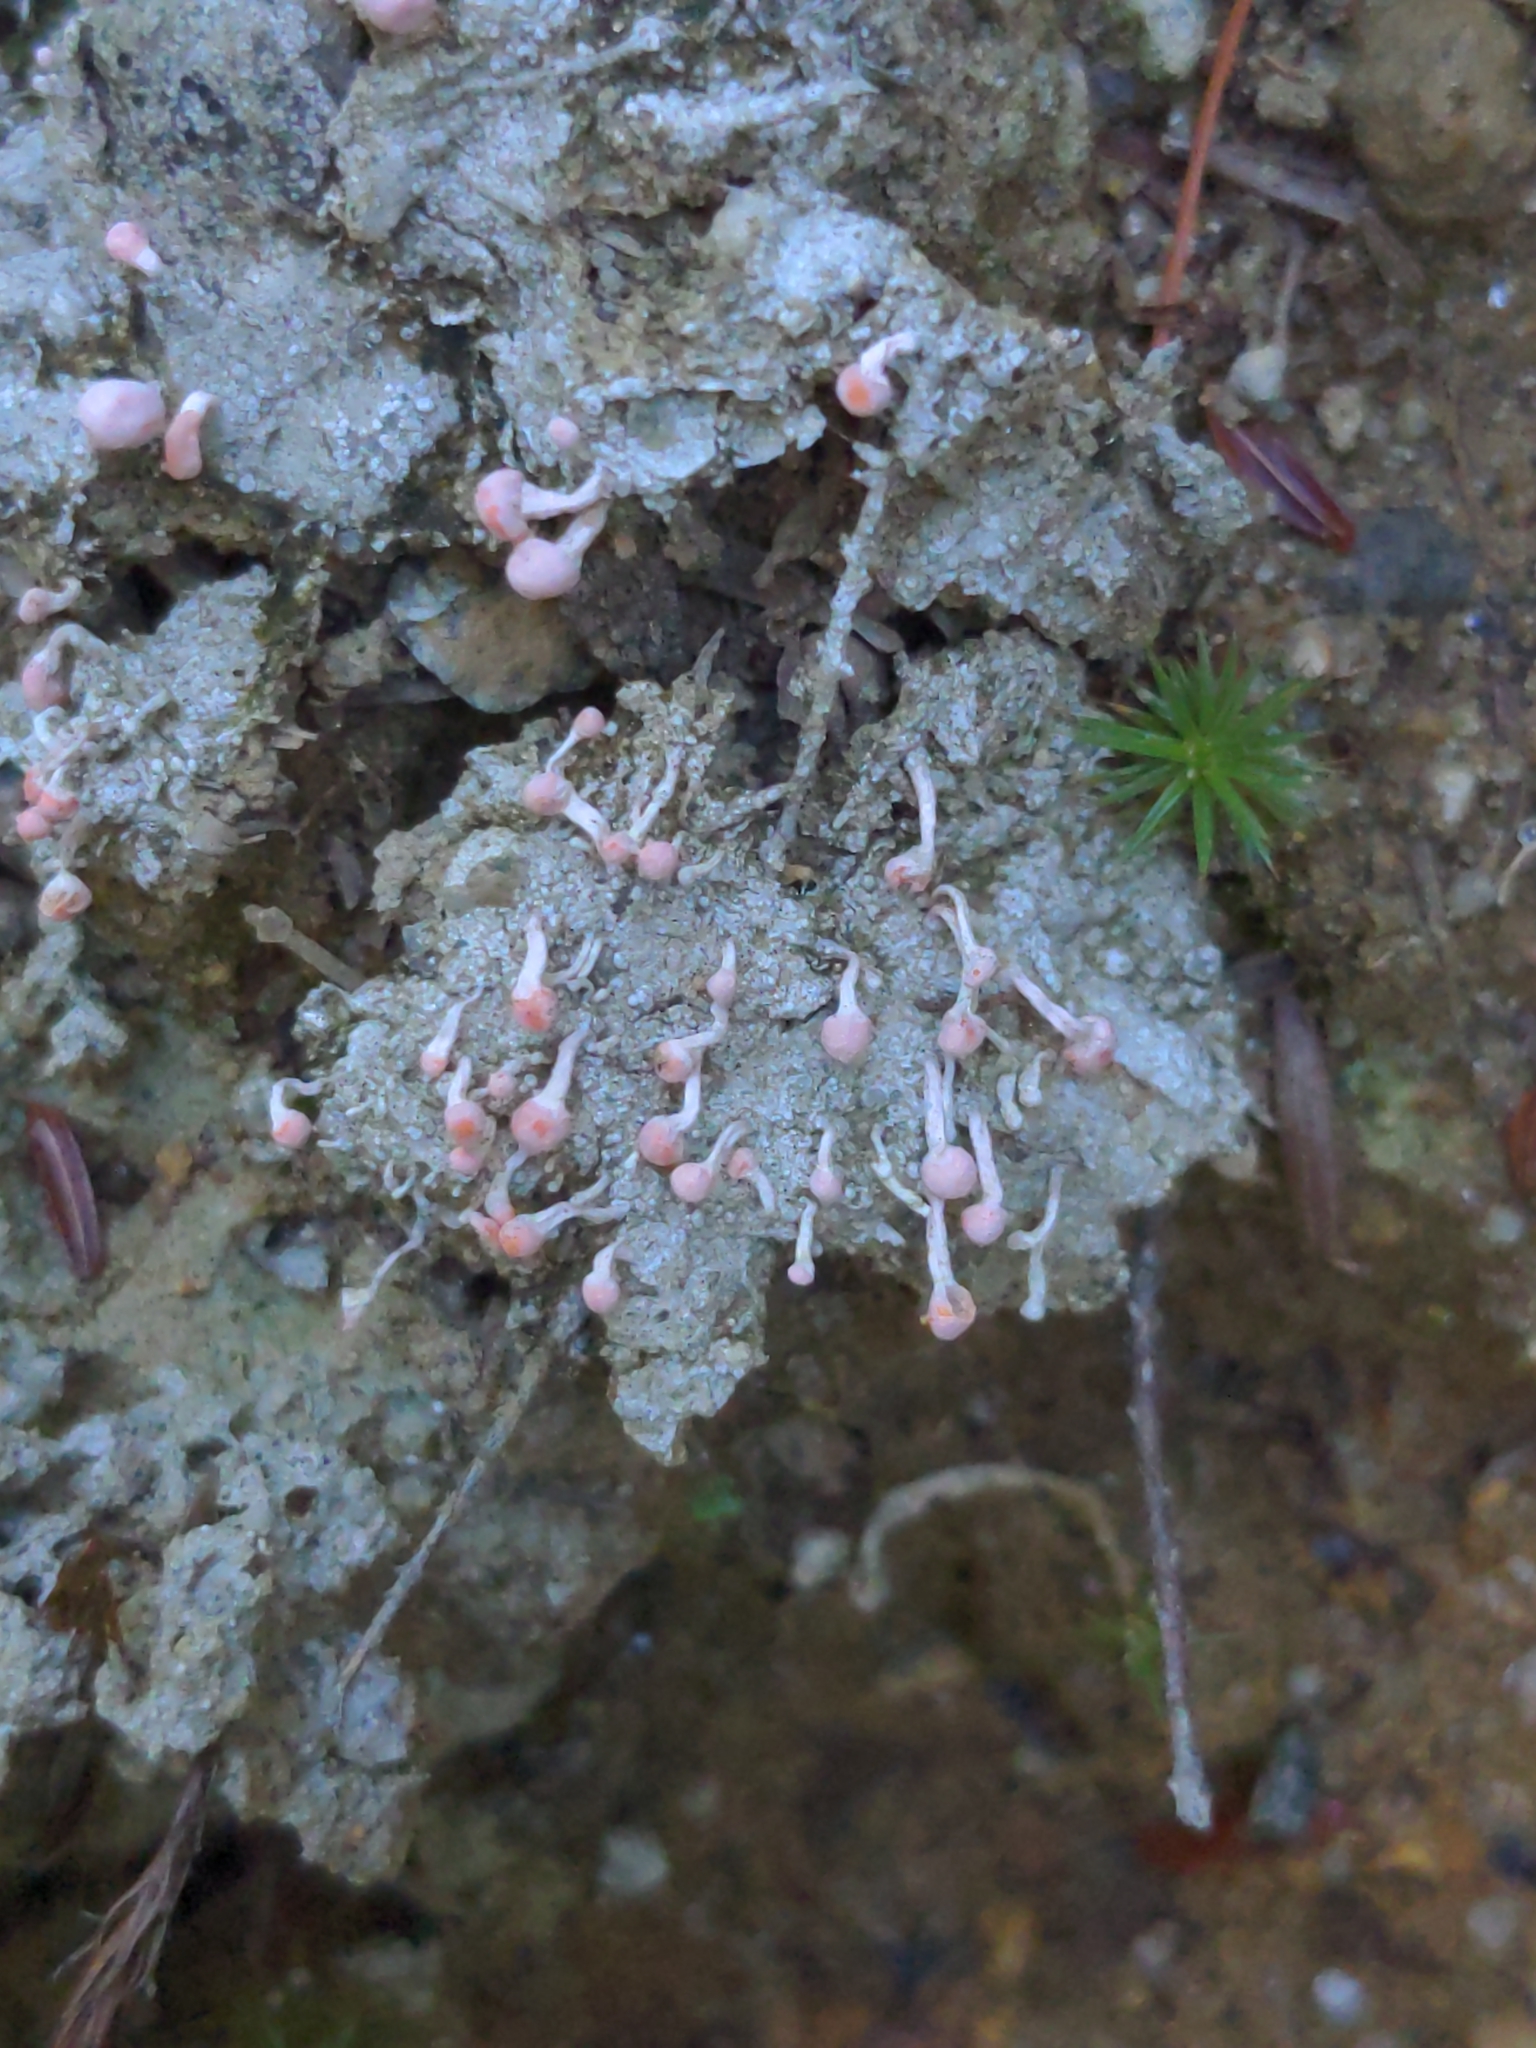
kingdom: Fungi
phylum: Ascomycota
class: Lecanoromycetes
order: Pertusariales
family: Icmadophilaceae
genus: Dibaeis
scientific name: Dibaeis baeomyces
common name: Pink earth lichen
